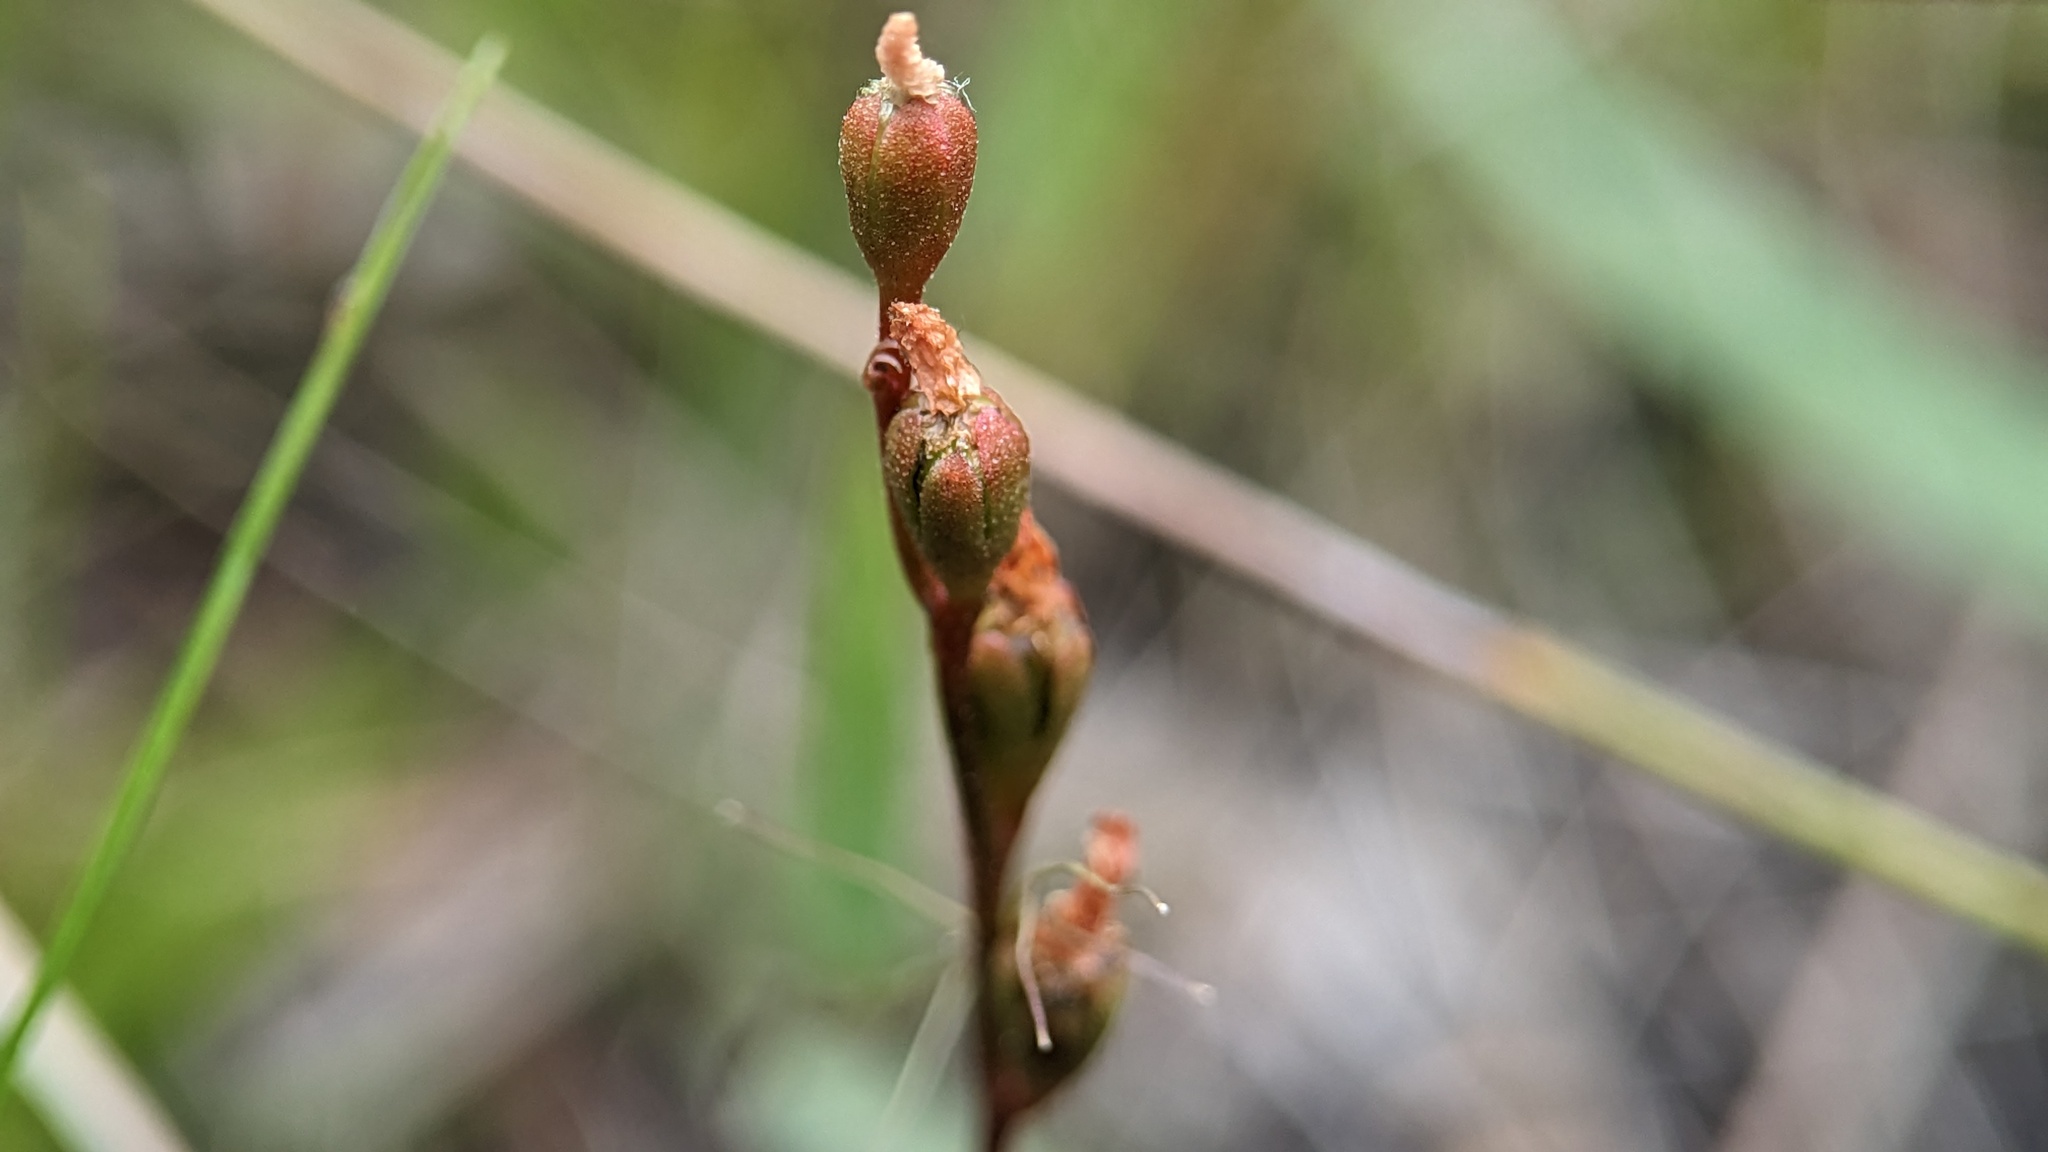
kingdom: Plantae
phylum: Tracheophyta
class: Magnoliopsida
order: Caryophyllales
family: Droseraceae
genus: Drosera
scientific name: Drosera capillaris
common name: Pink sundew
